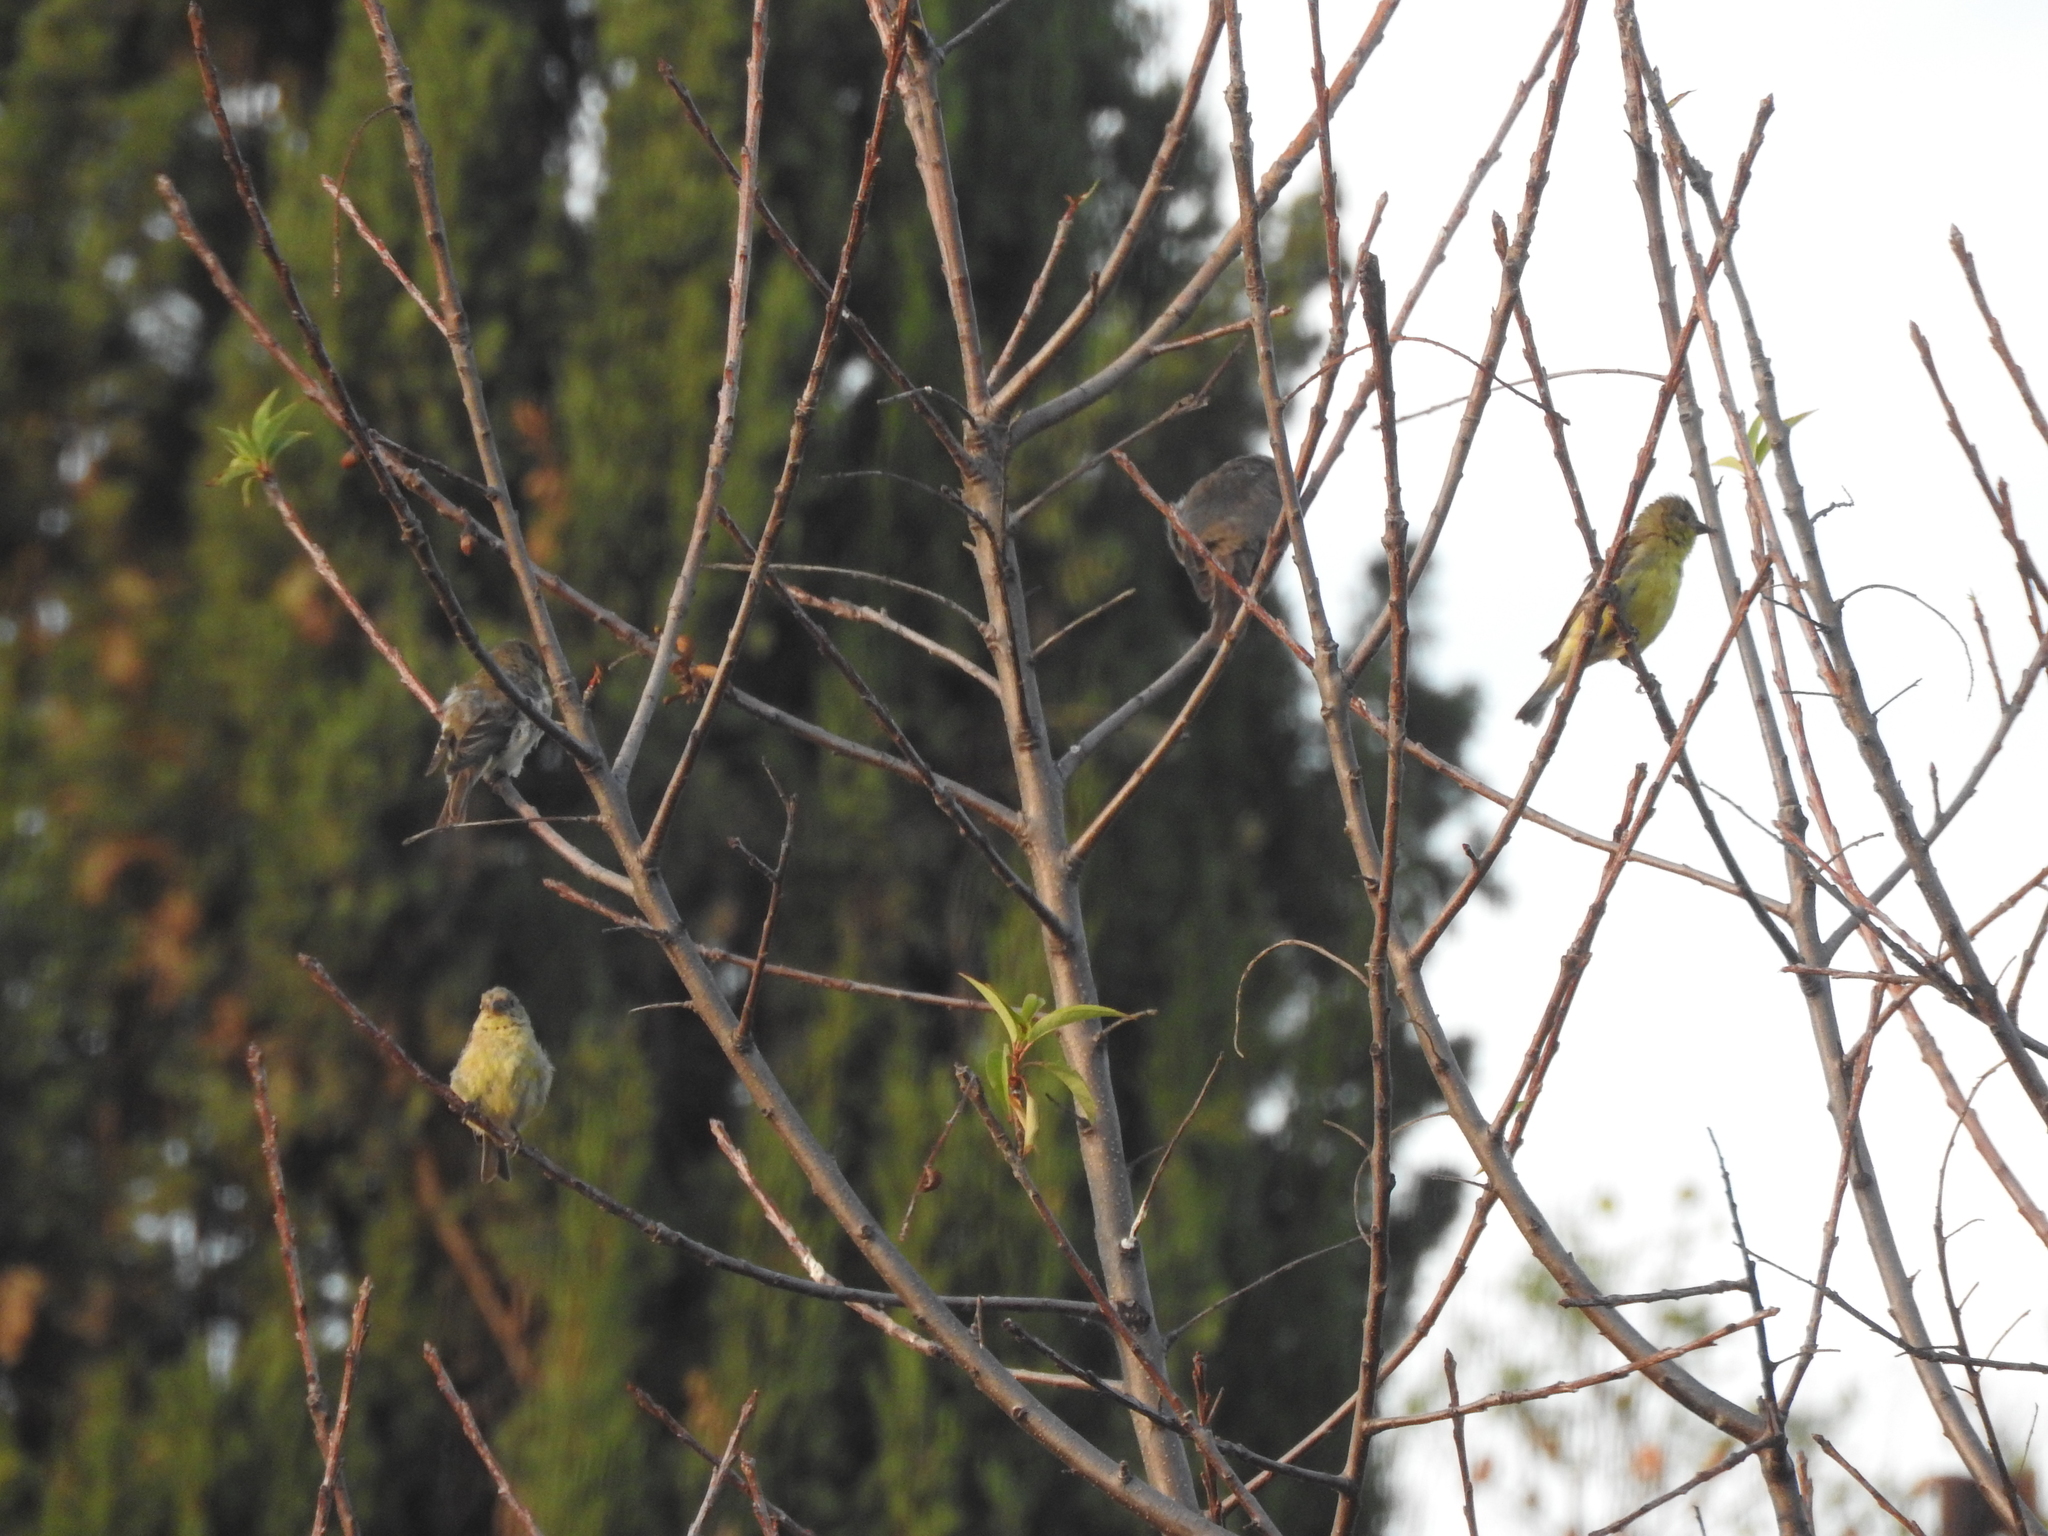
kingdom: Animalia
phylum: Chordata
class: Aves
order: Passeriformes
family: Fringillidae
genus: Spinus
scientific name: Spinus psaltria
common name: Lesser goldfinch
